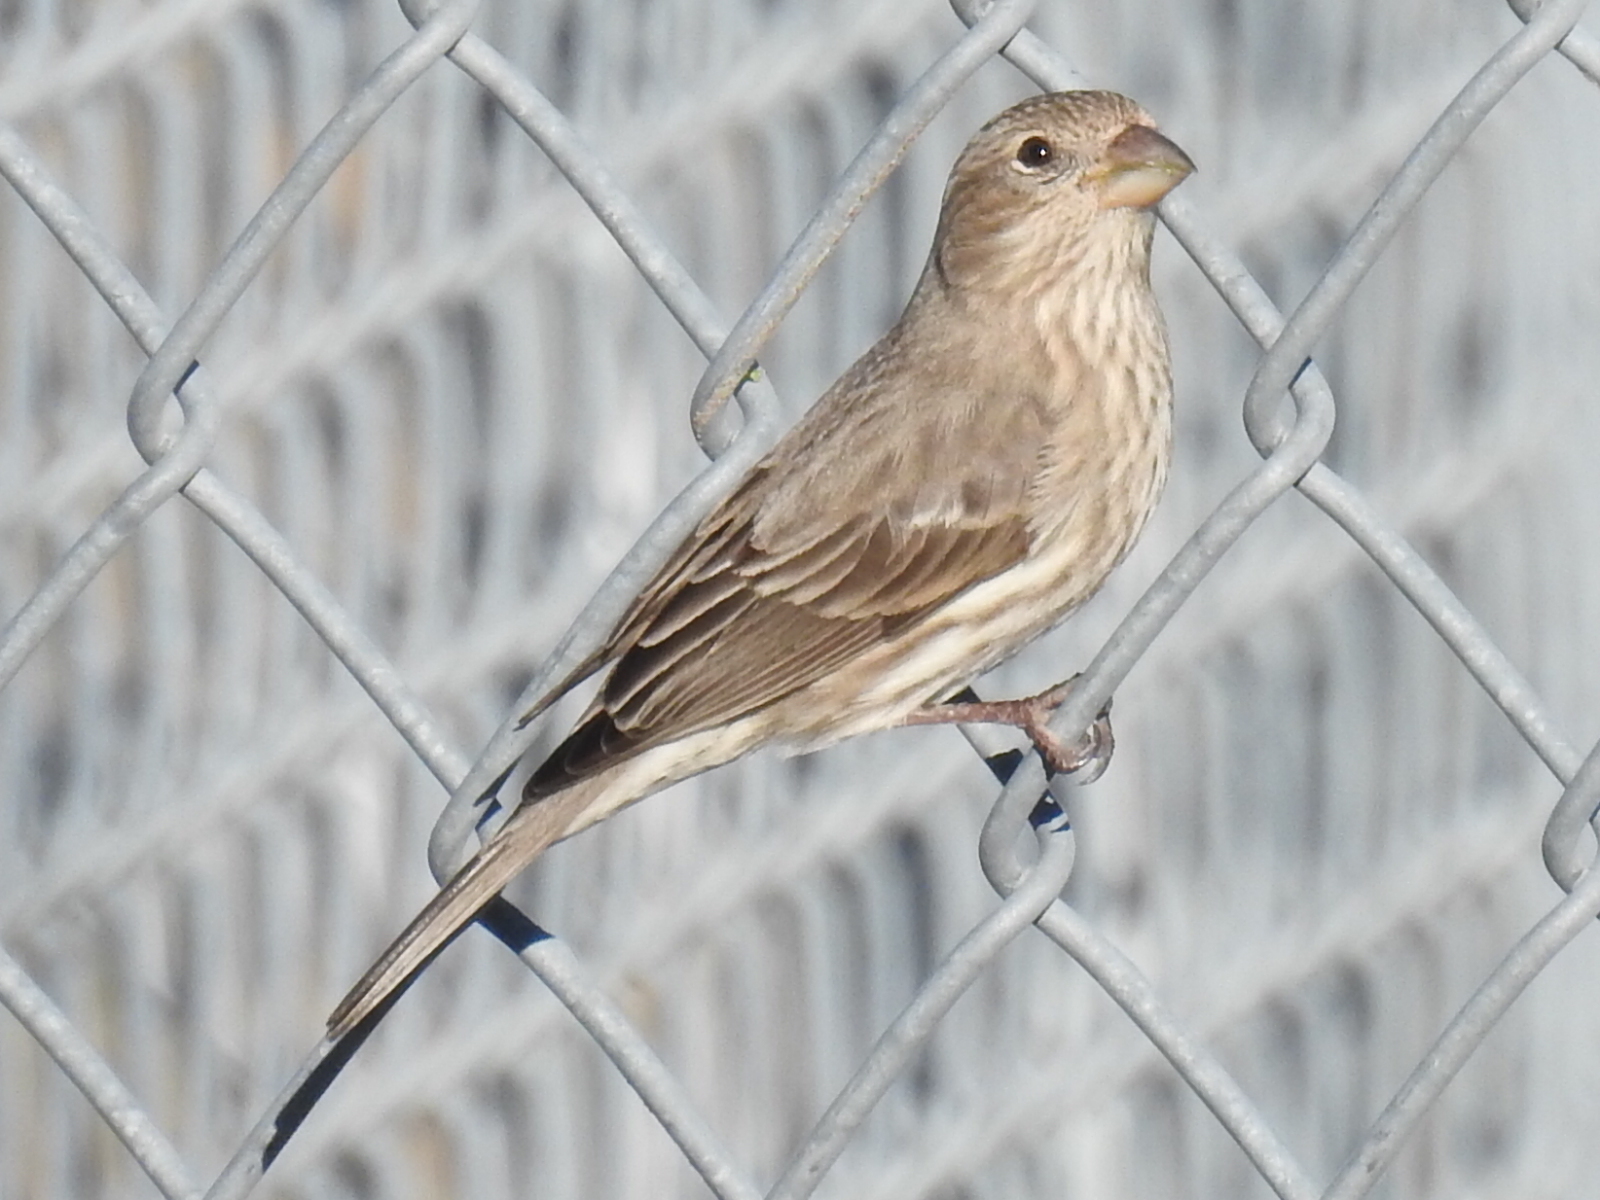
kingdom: Animalia
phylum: Chordata
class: Aves
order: Passeriformes
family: Fringillidae
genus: Haemorhous
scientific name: Haemorhous mexicanus
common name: House finch
